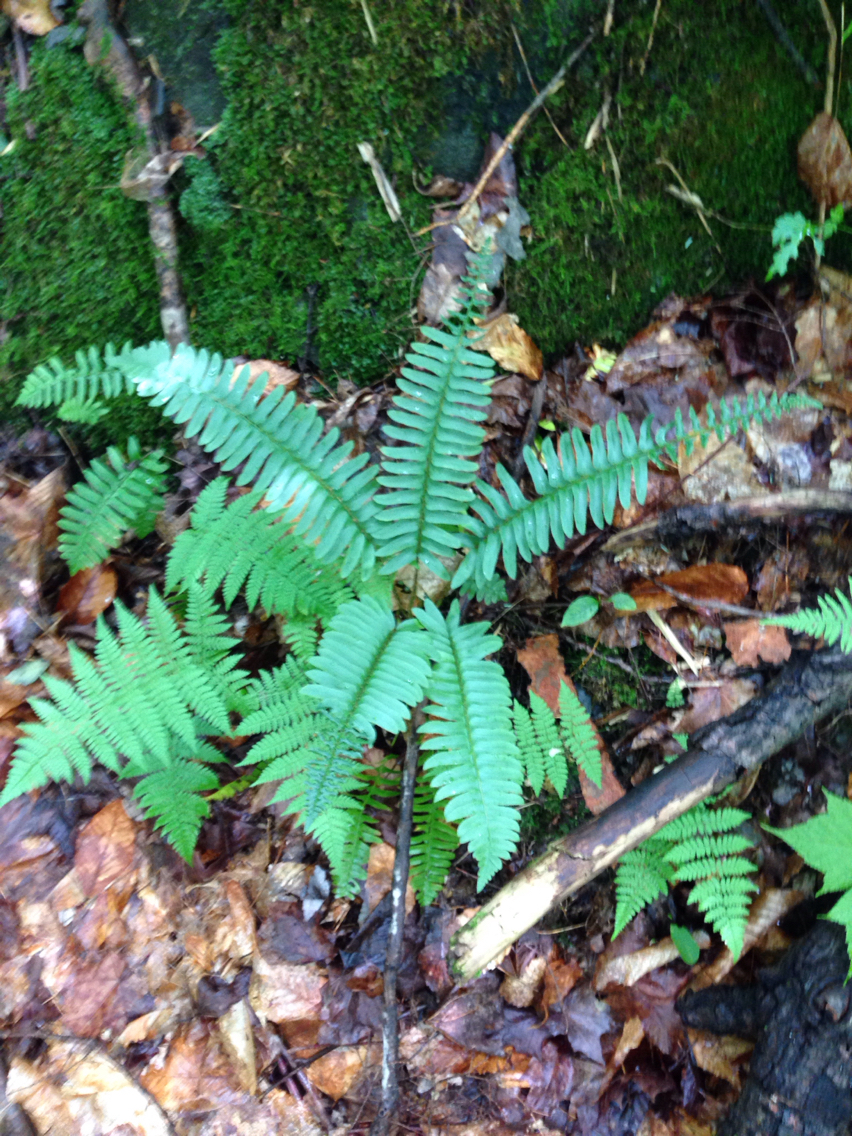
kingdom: Plantae
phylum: Tracheophyta
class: Polypodiopsida
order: Polypodiales
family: Dryopteridaceae
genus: Polystichum
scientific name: Polystichum acrostichoides
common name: Christmas fern
